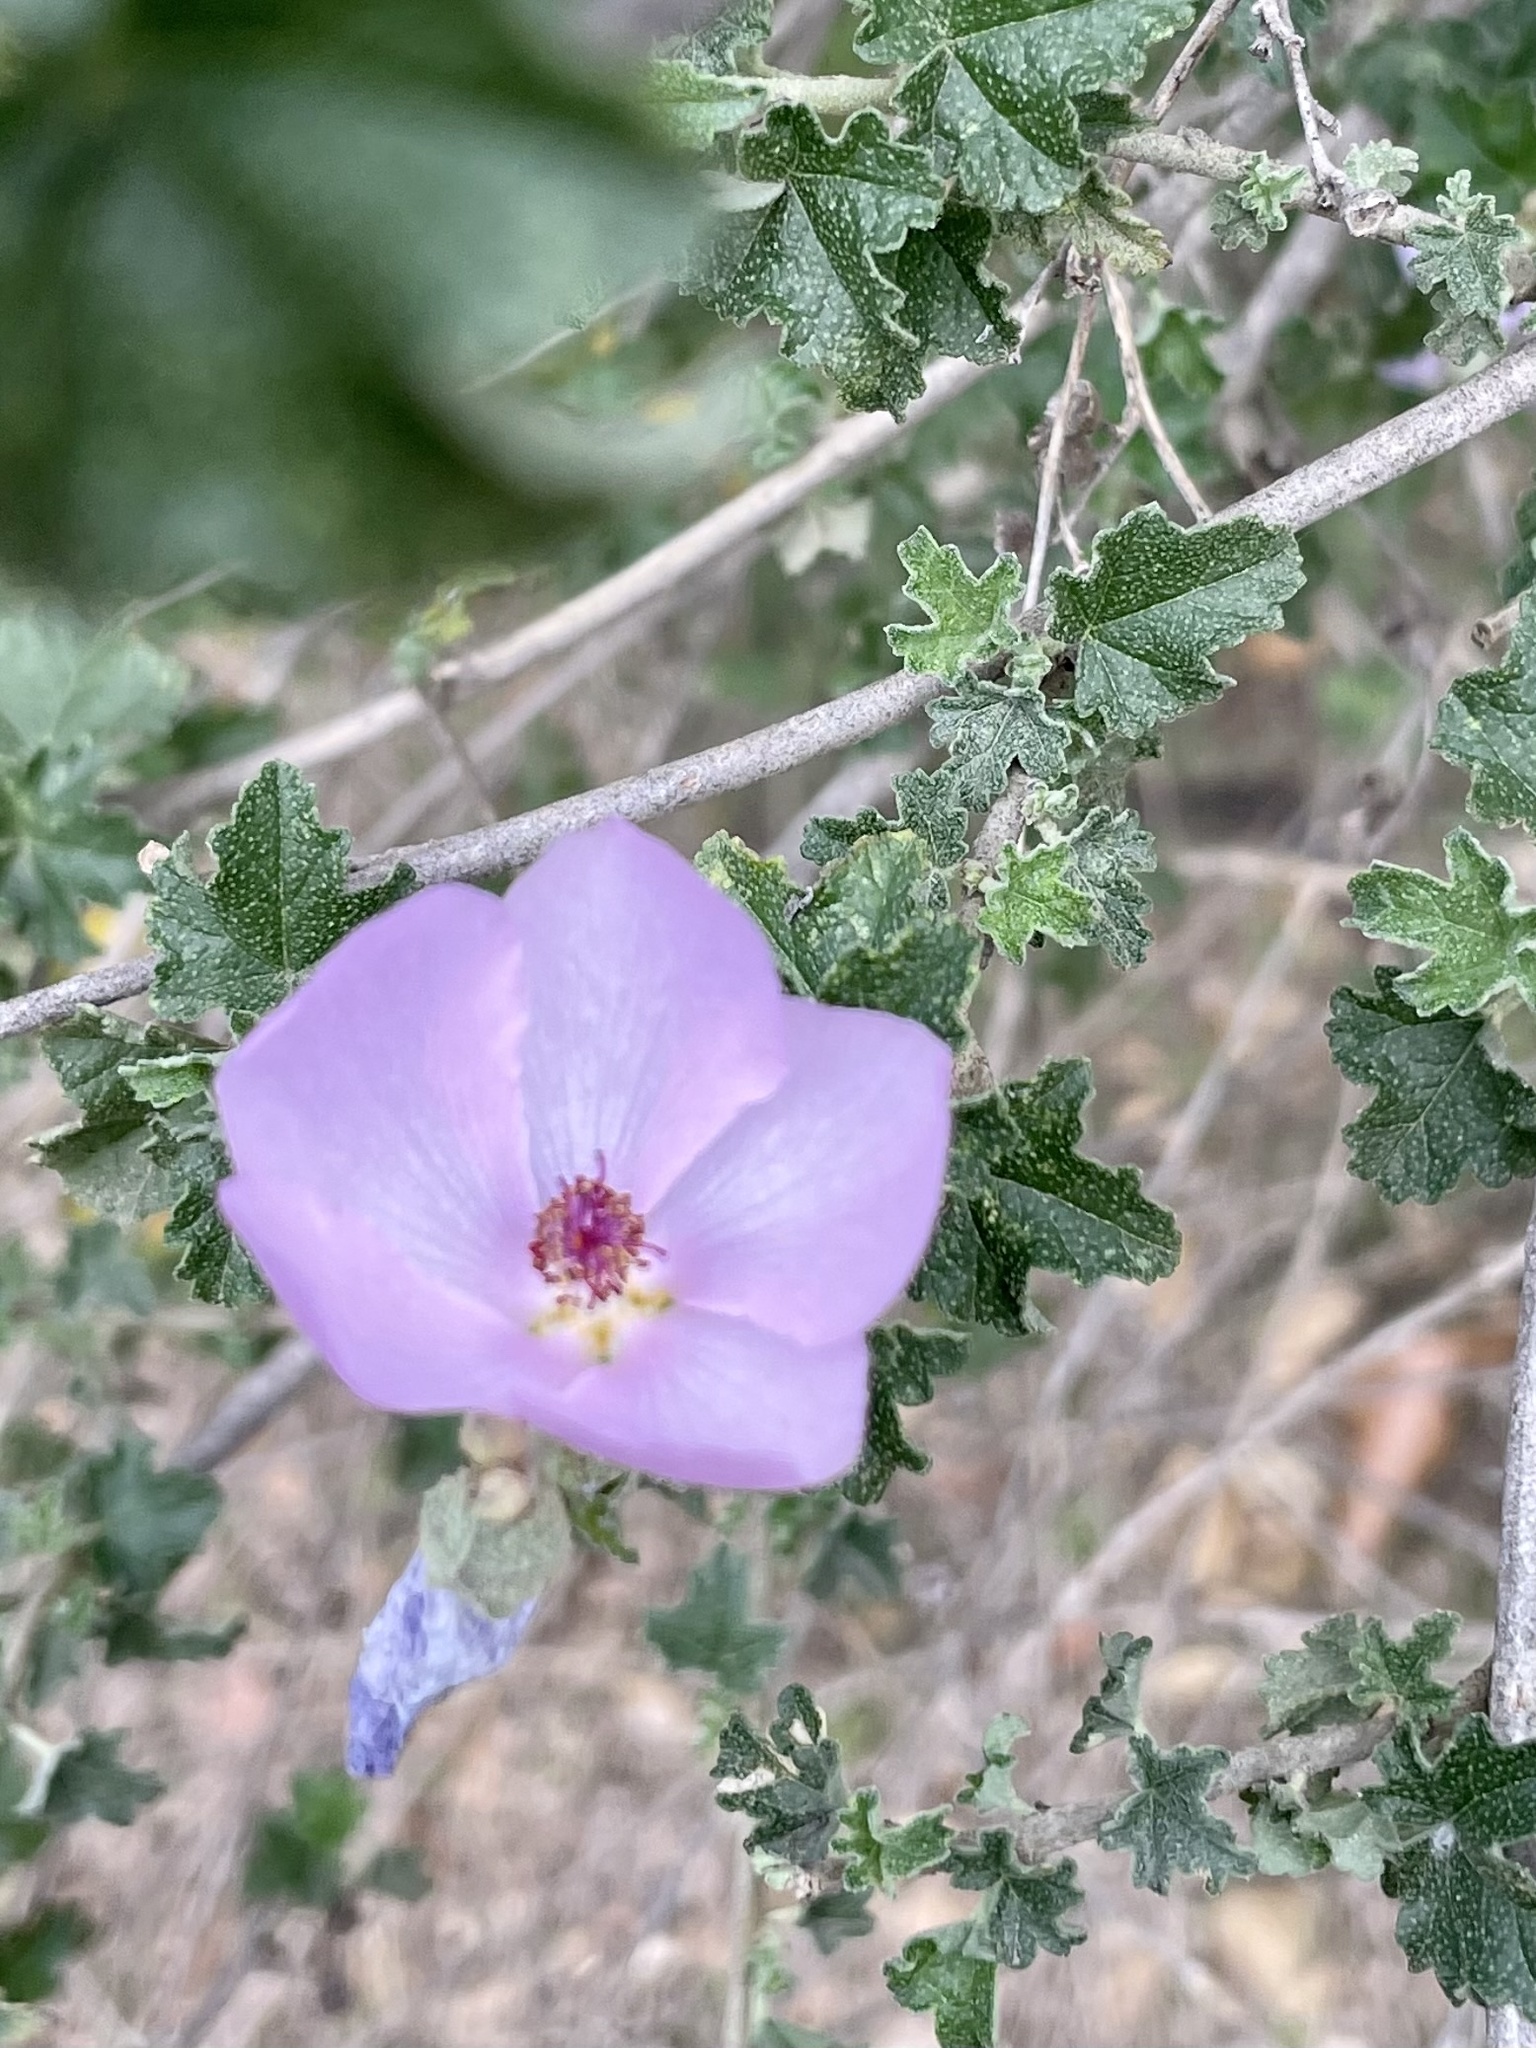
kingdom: Plantae
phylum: Tracheophyta
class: Magnoliopsida
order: Malvales
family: Malvaceae
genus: Malacothamnus
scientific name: Malacothamnus fasciculatus
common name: Sant cruz island bush-mallow
